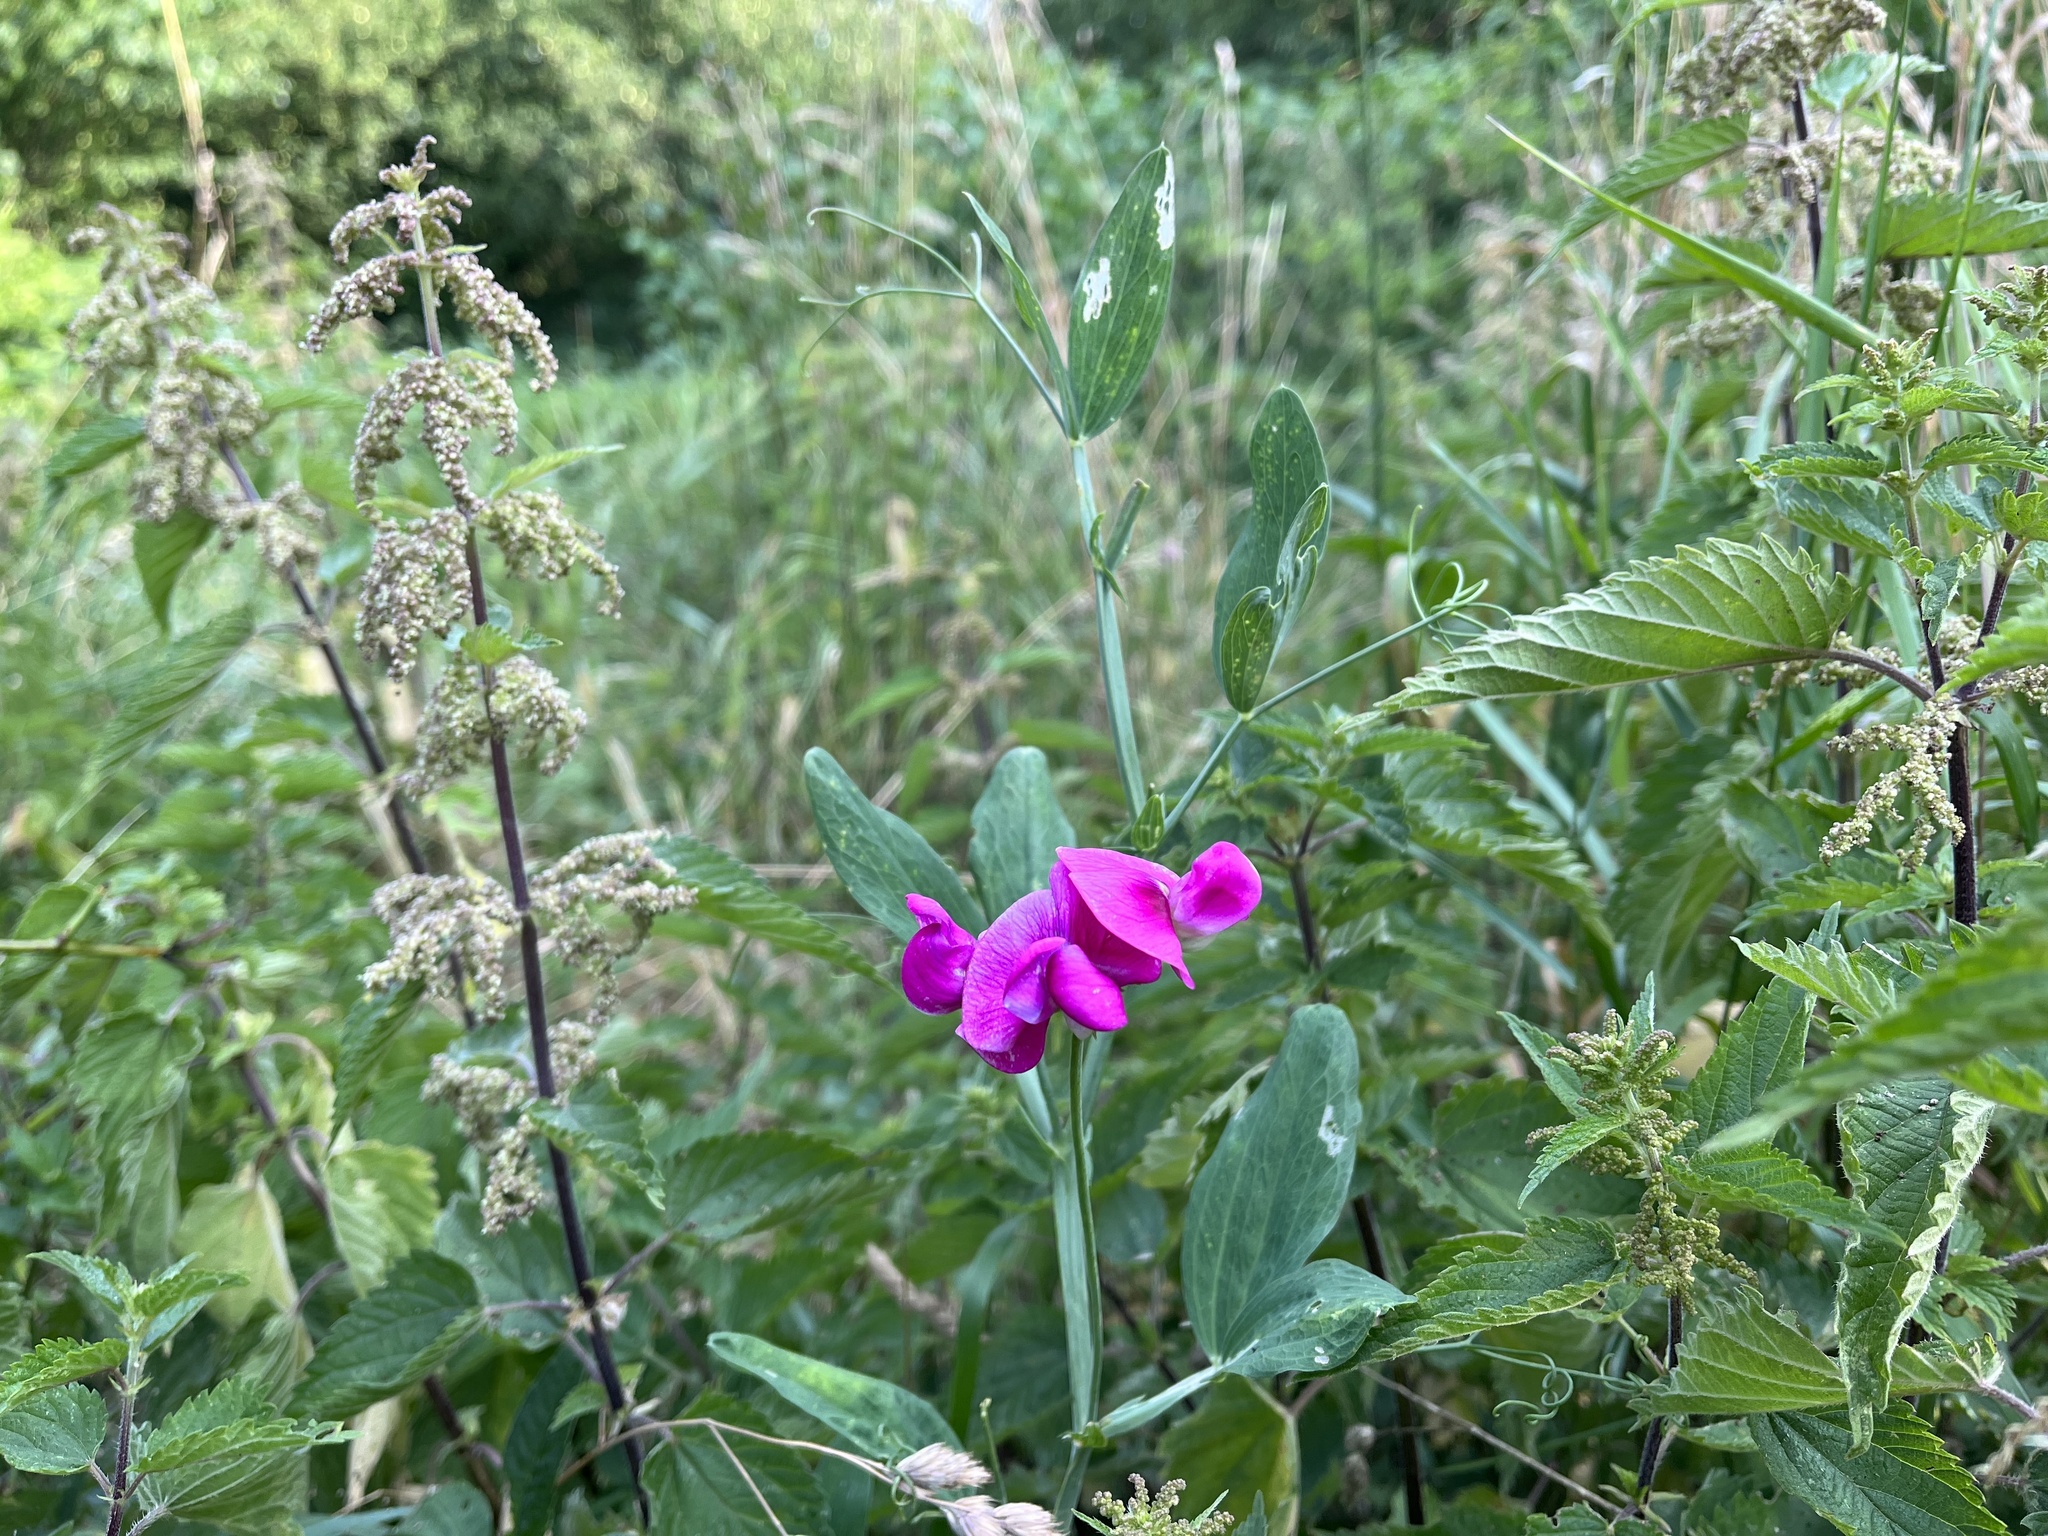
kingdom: Plantae
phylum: Tracheophyta
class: Magnoliopsida
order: Fabales
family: Fabaceae
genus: Lathyrus
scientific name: Lathyrus latifolius
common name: Perennial pea
